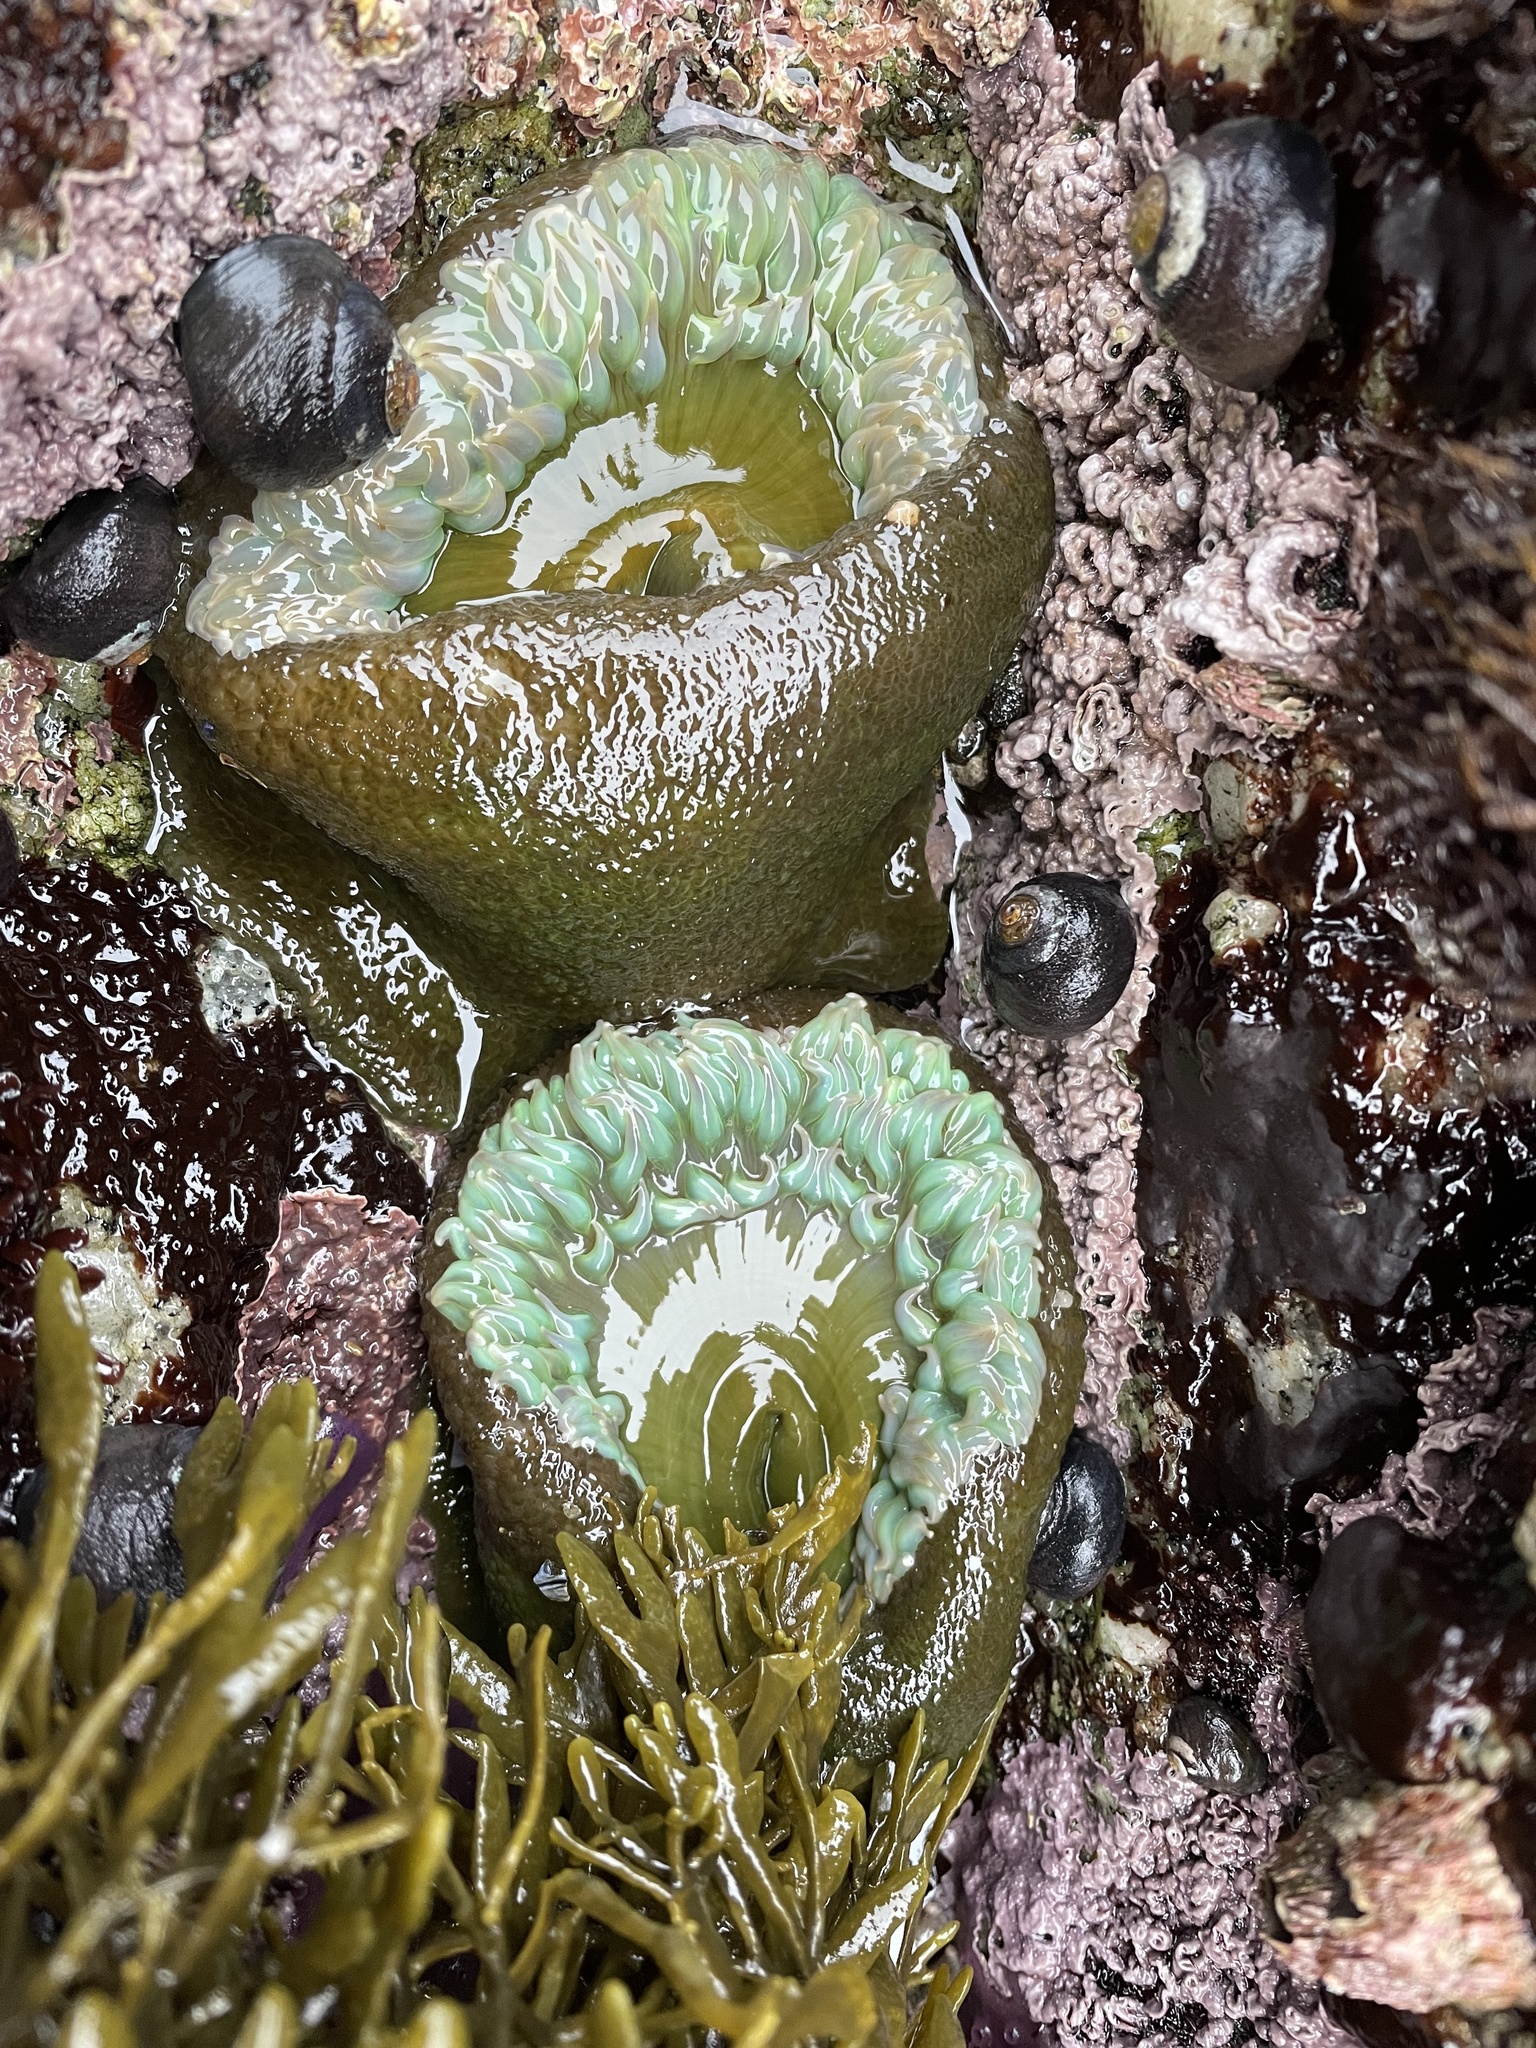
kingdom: Animalia
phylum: Cnidaria
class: Anthozoa
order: Actiniaria
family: Actiniidae
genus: Anthopleura
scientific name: Anthopleura xanthogrammica
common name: Giant green anemone
